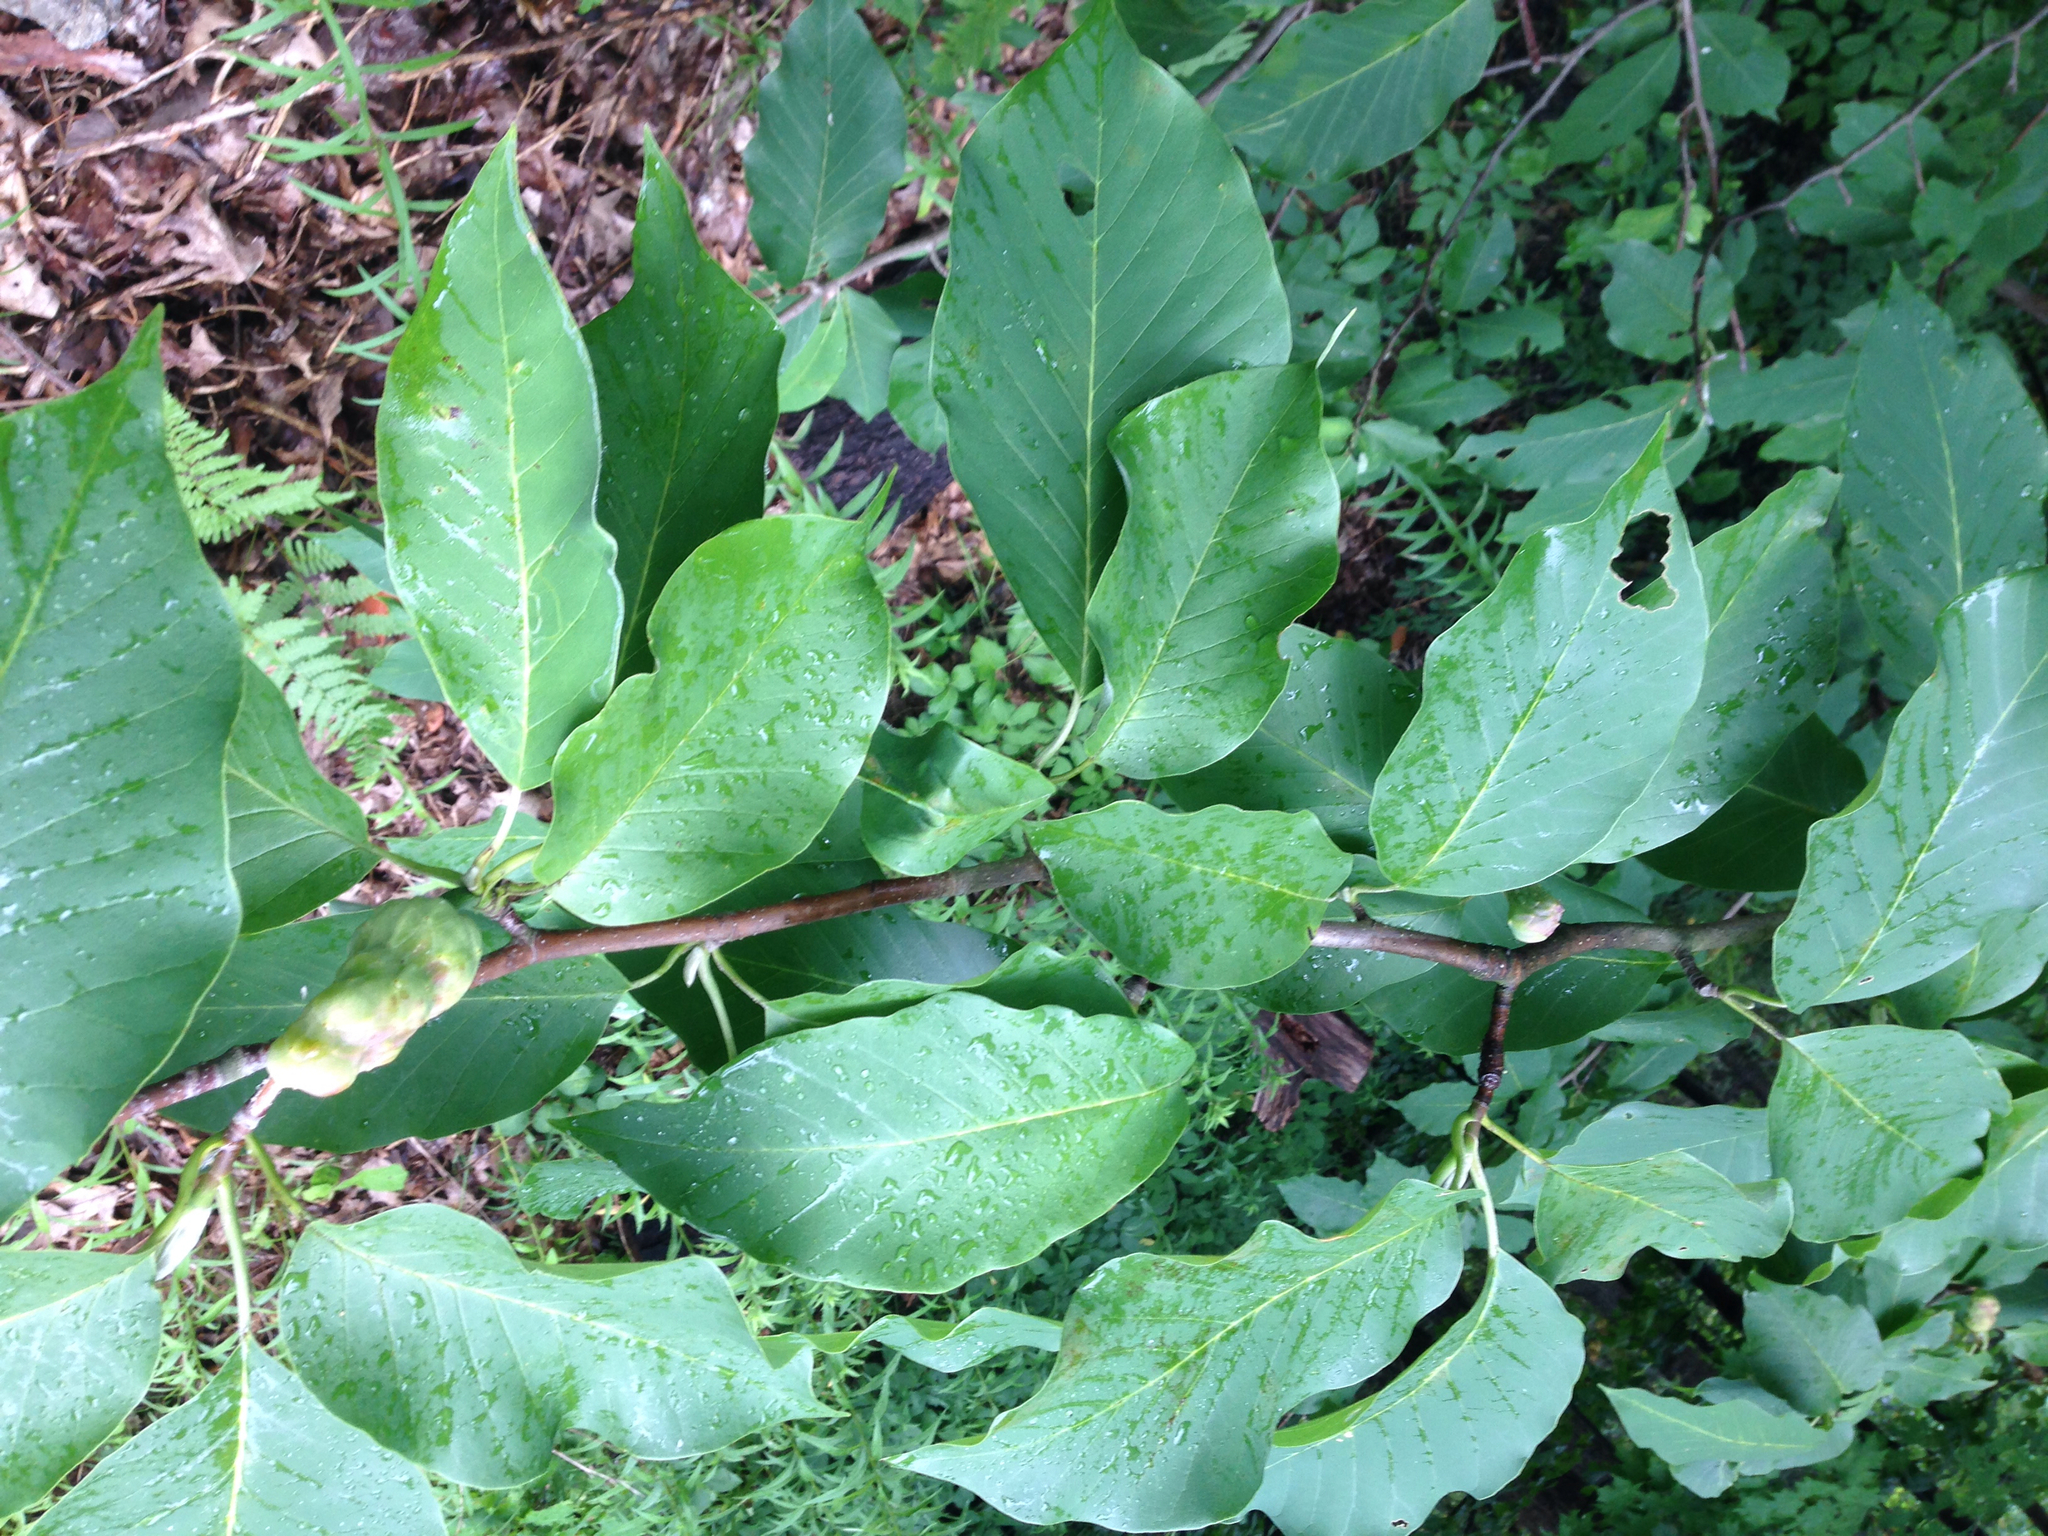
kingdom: Plantae
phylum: Tracheophyta
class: Magnoliopsida
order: Magnoliales
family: Magnoliaceae
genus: Magnolia
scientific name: Magnolia acuminata
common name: Cucumber magnolia
